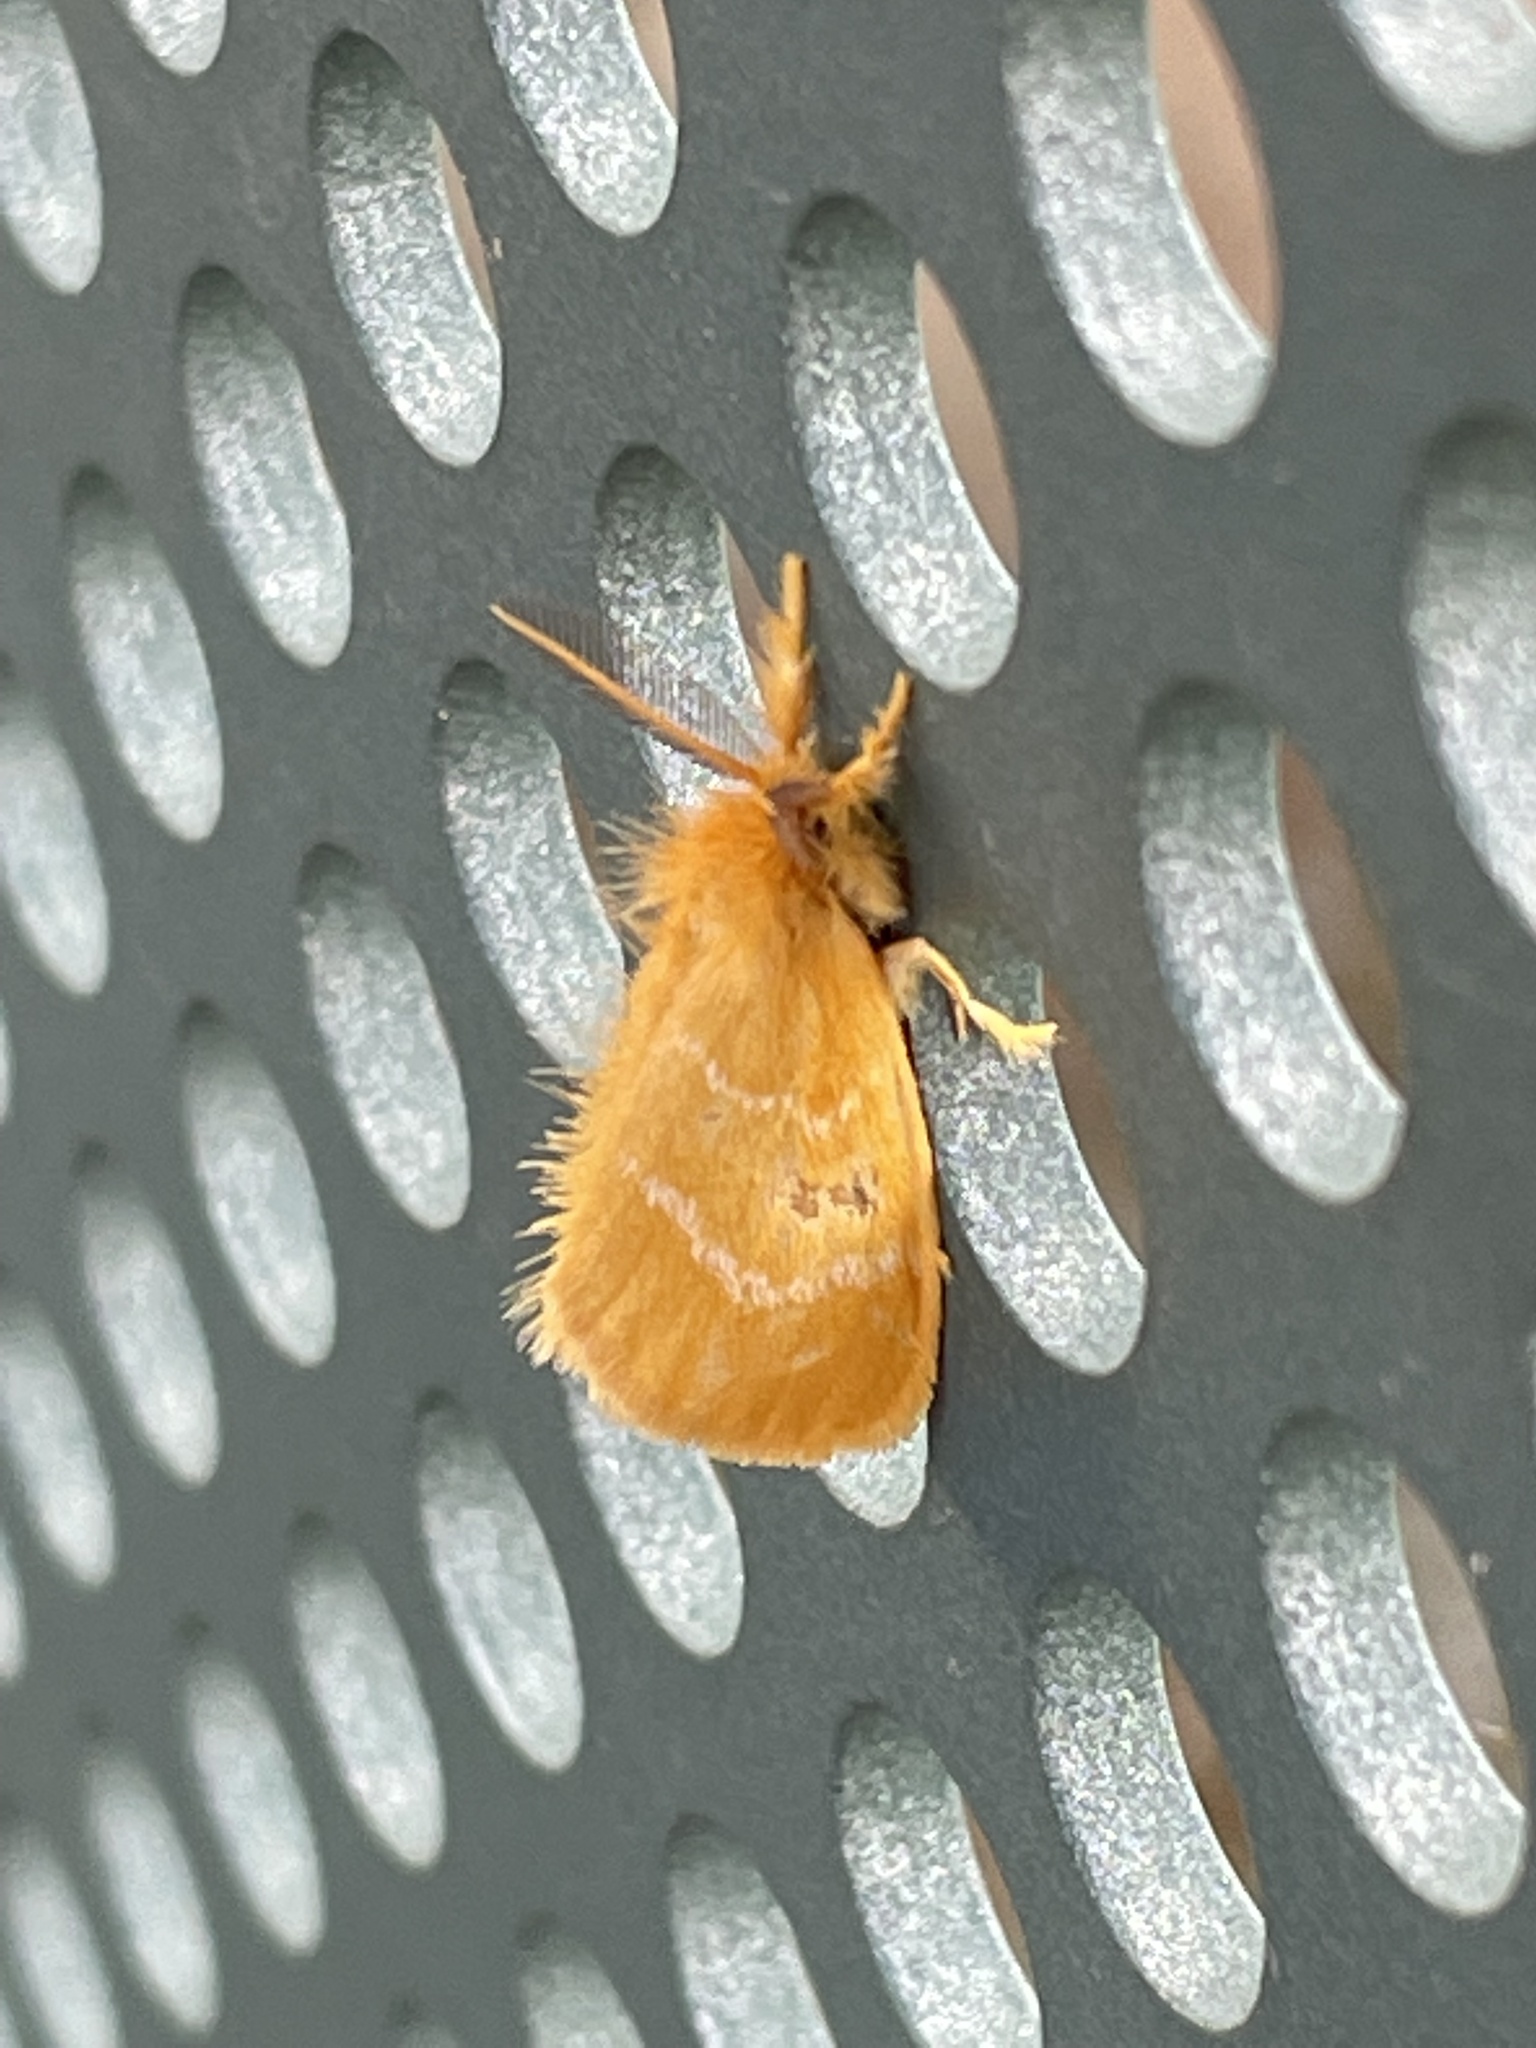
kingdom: Animalia
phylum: Arthropoda
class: Insecta
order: Lepidoptera
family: Erebidae
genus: Euproctis
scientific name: Euproctis lutea
